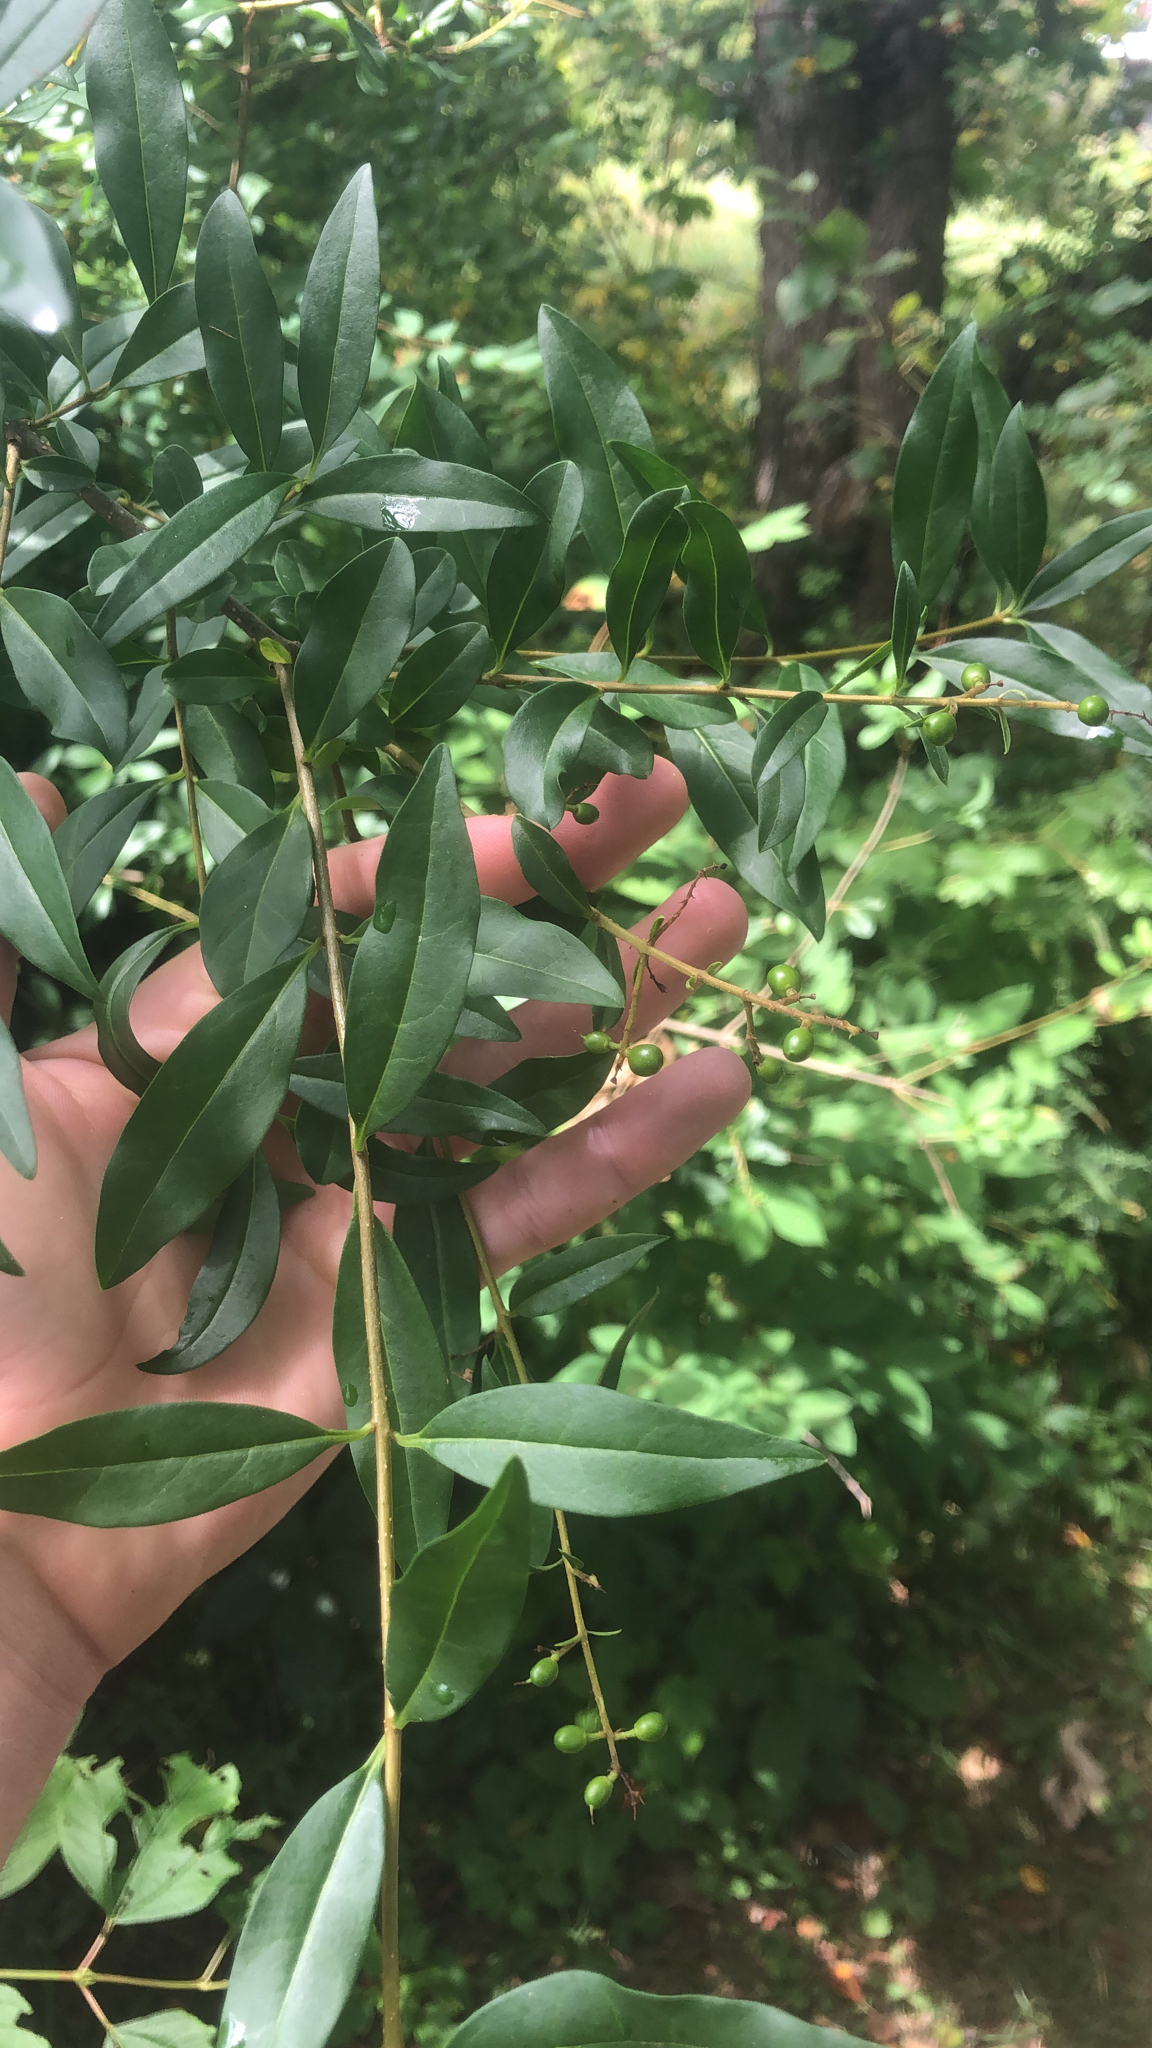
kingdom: Plantae
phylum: Tracheophyta
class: Magnoliopsida
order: Lamiales
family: Oleaceae
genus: Ligustrum
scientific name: Ligustrum vulgare
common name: Wild privet
